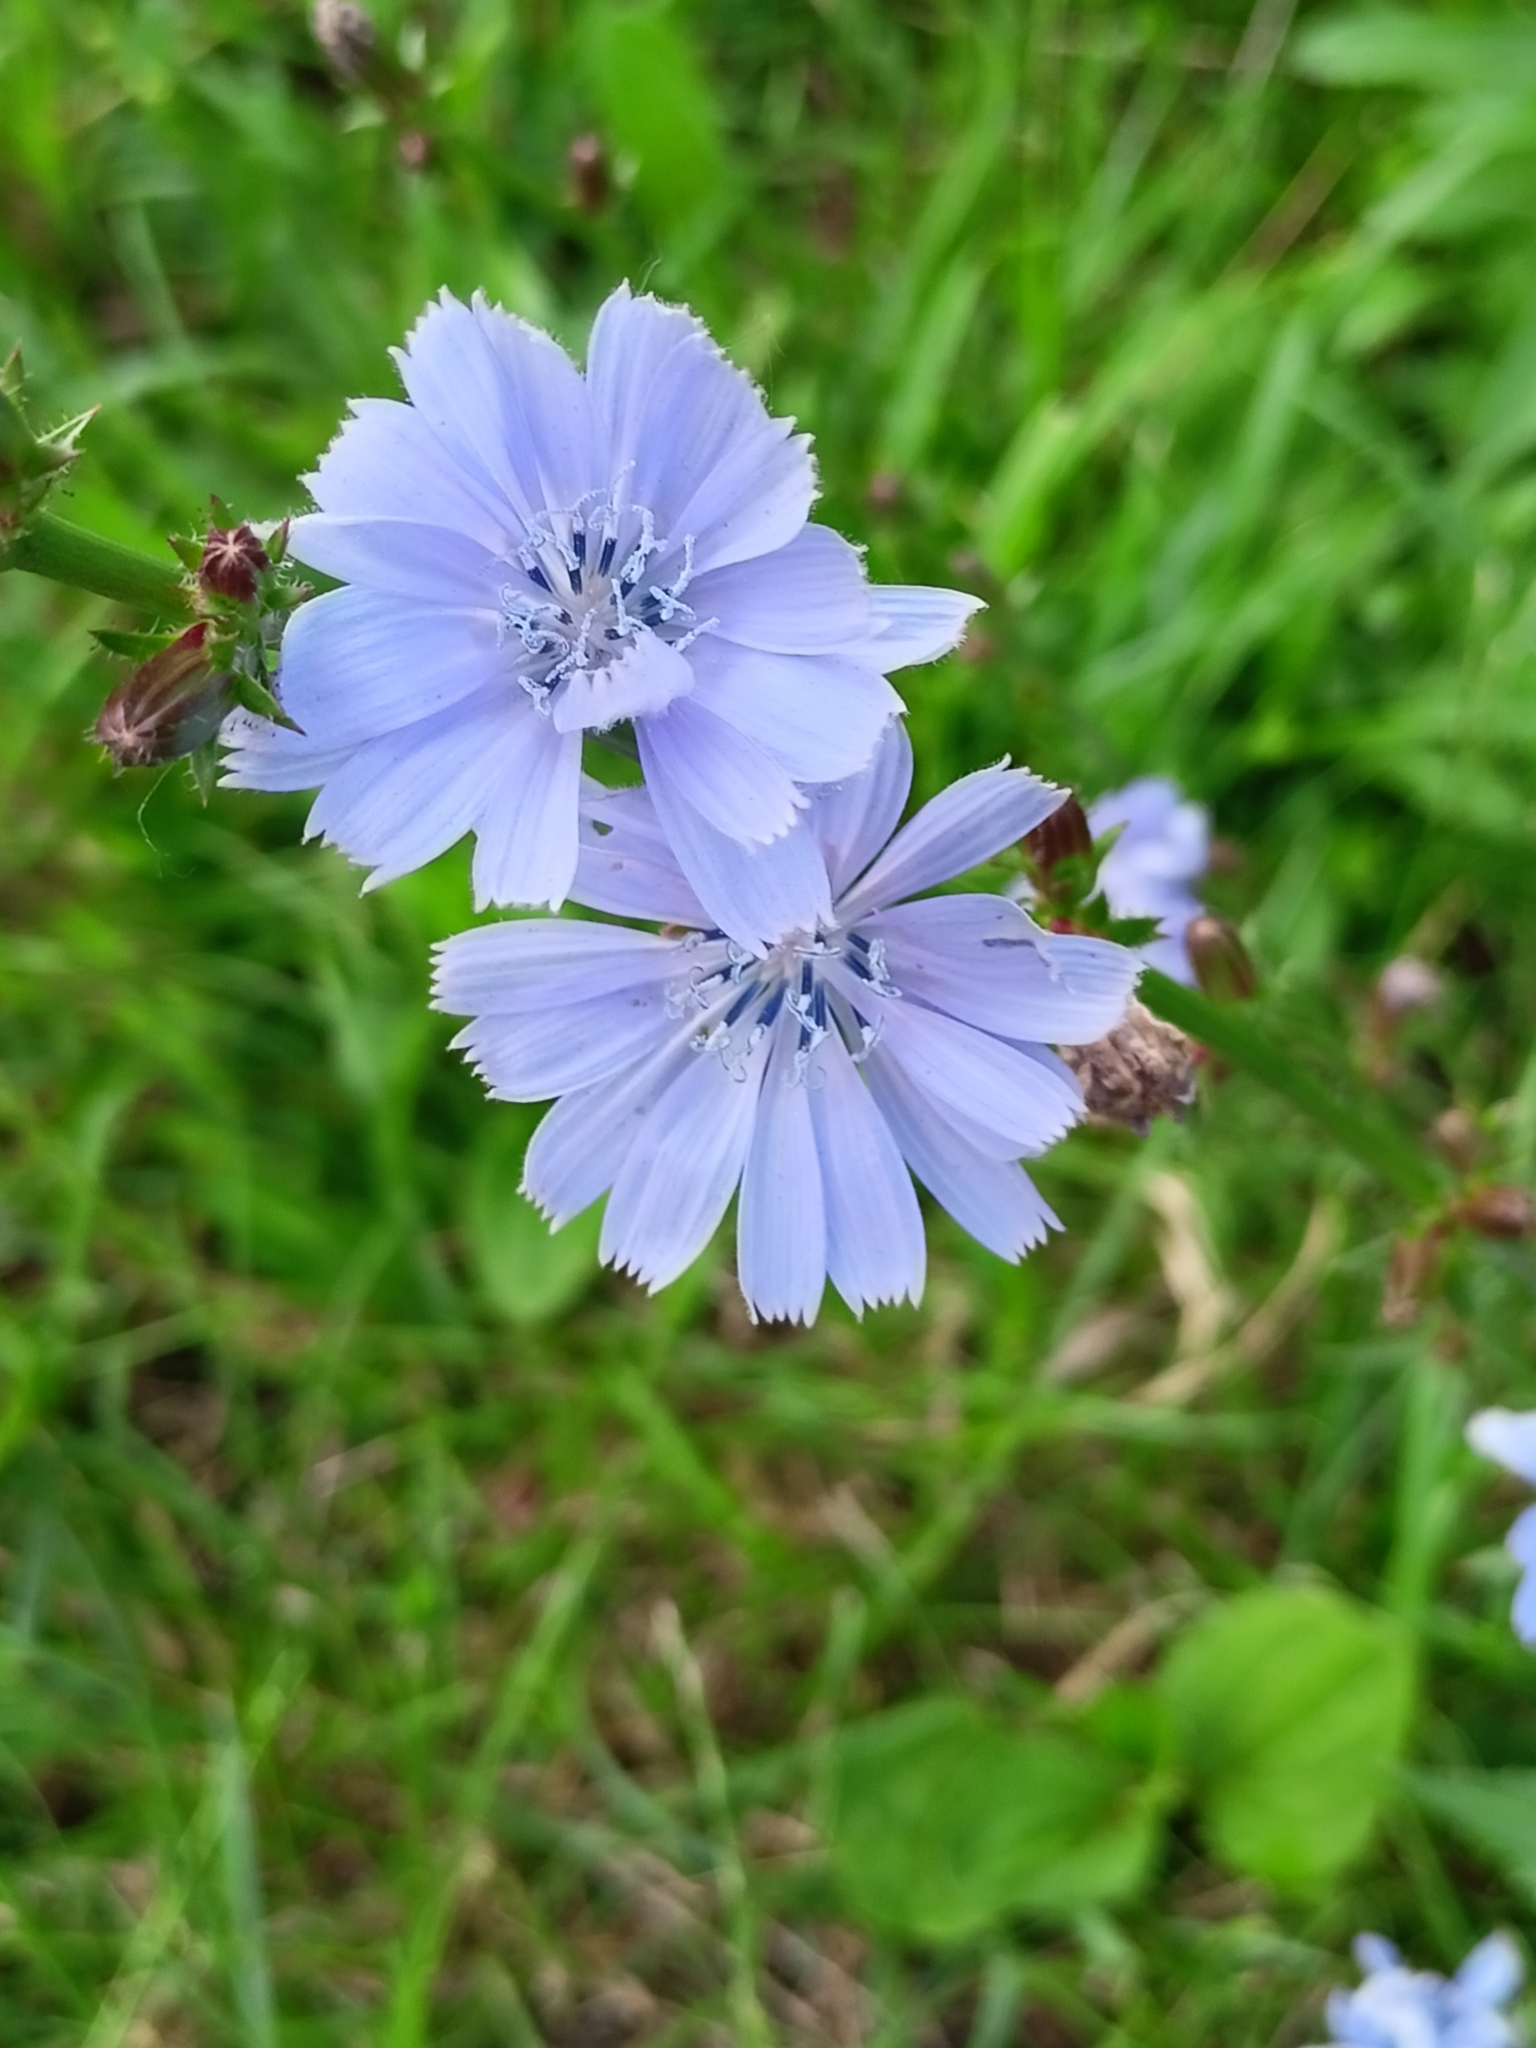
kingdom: Plantae
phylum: Tracheophyta
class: Magnoliopsida
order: Asterales
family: Asteraceae
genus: Cichorium
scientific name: Cichorium intybus
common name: Chicory
